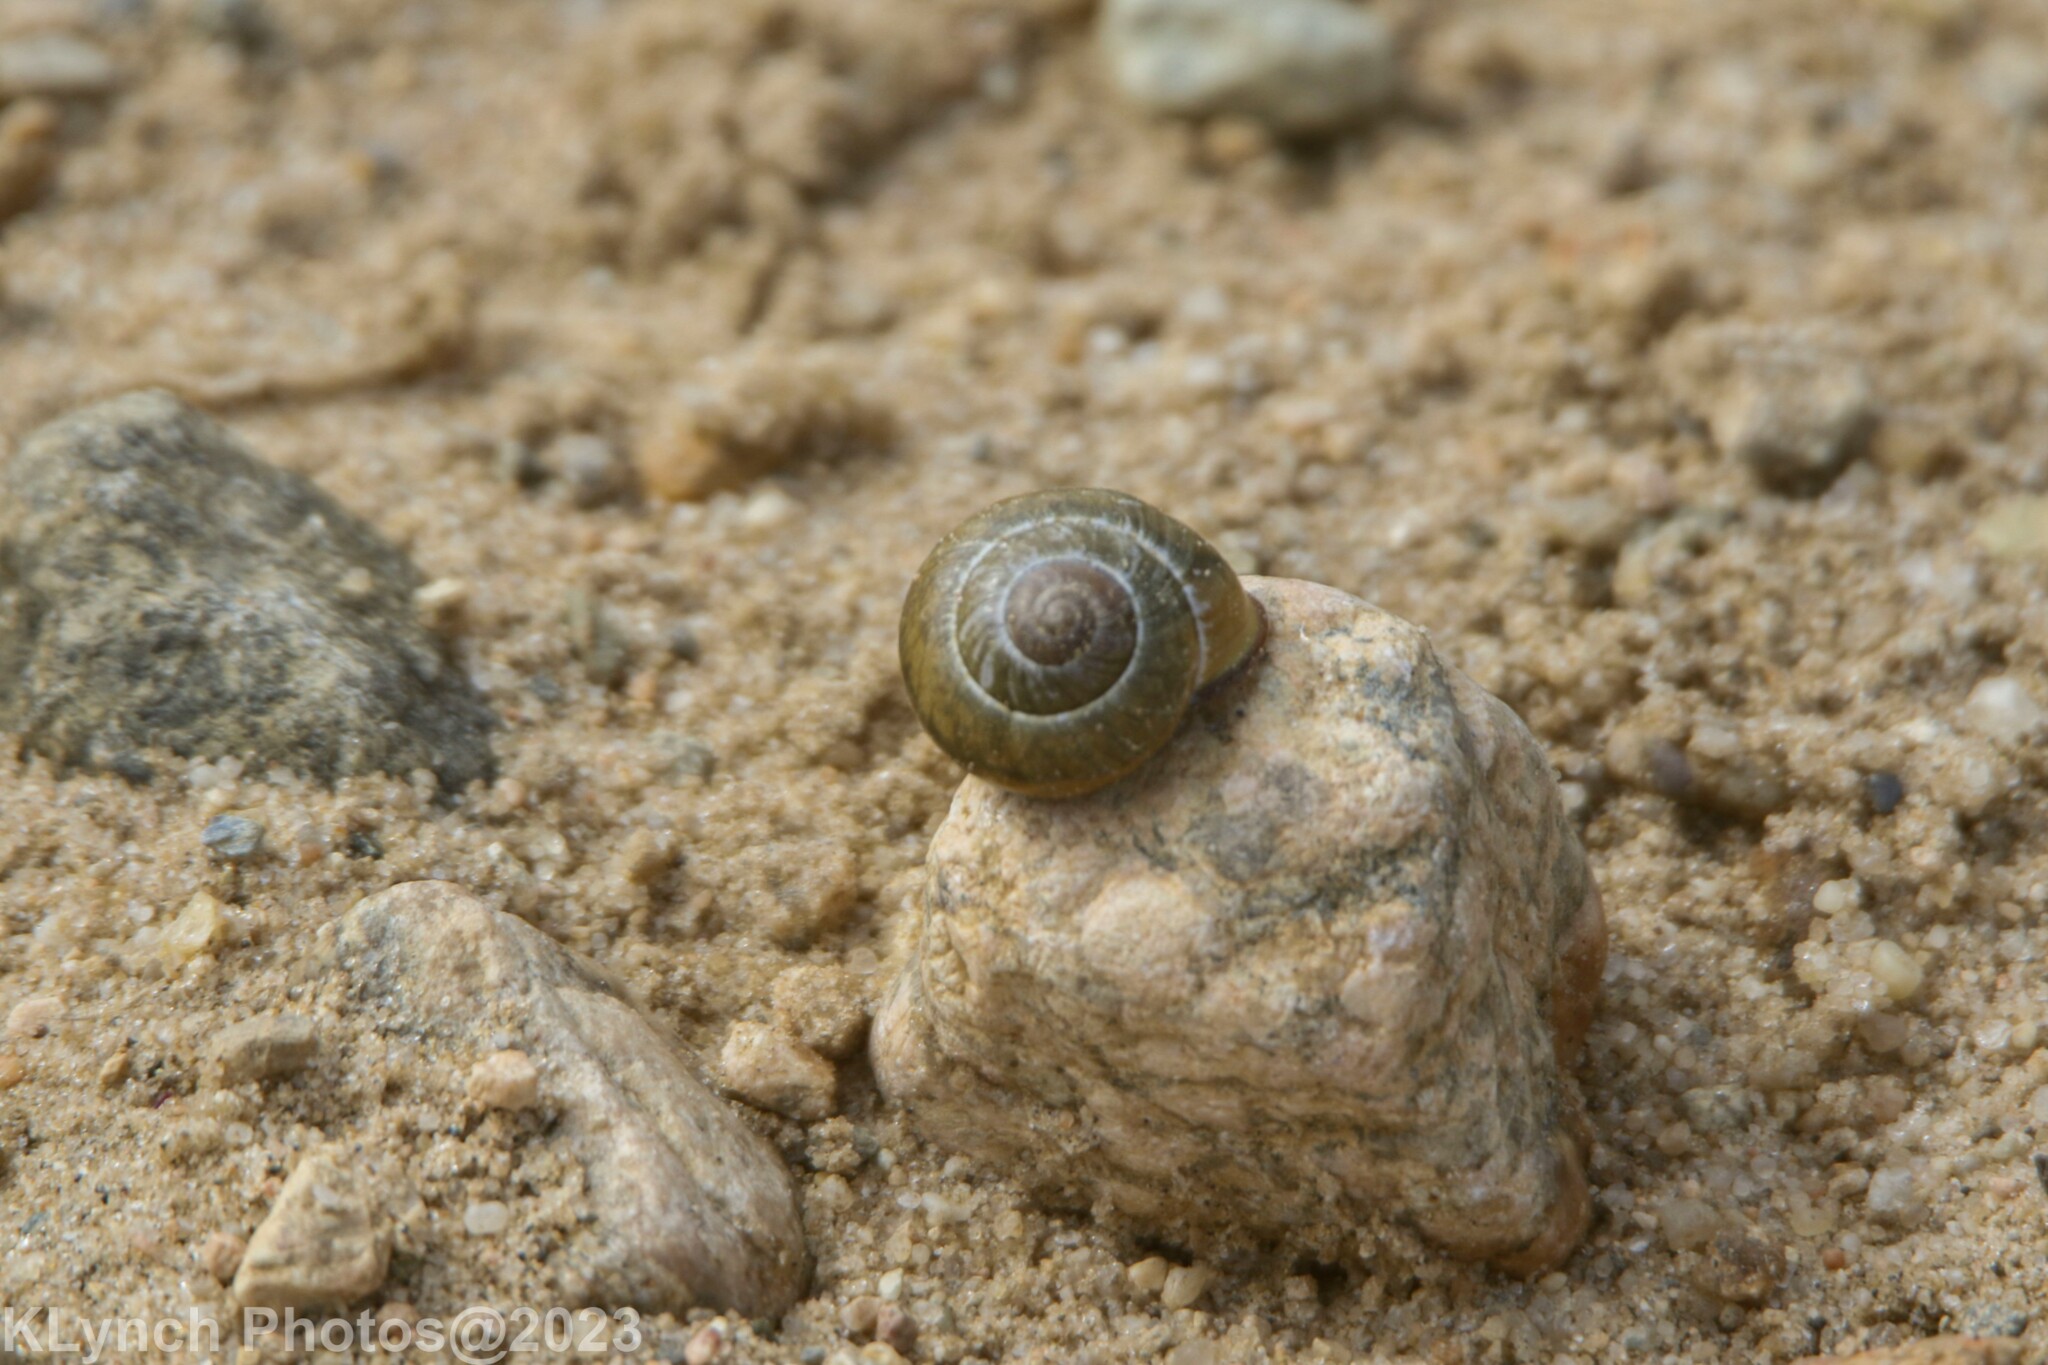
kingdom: Animalia
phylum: Mollusca
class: Gastropoda
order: Stylommatophora
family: Helicidae
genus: Cepaea
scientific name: Cepaea nemoralis
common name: Grovesnail
